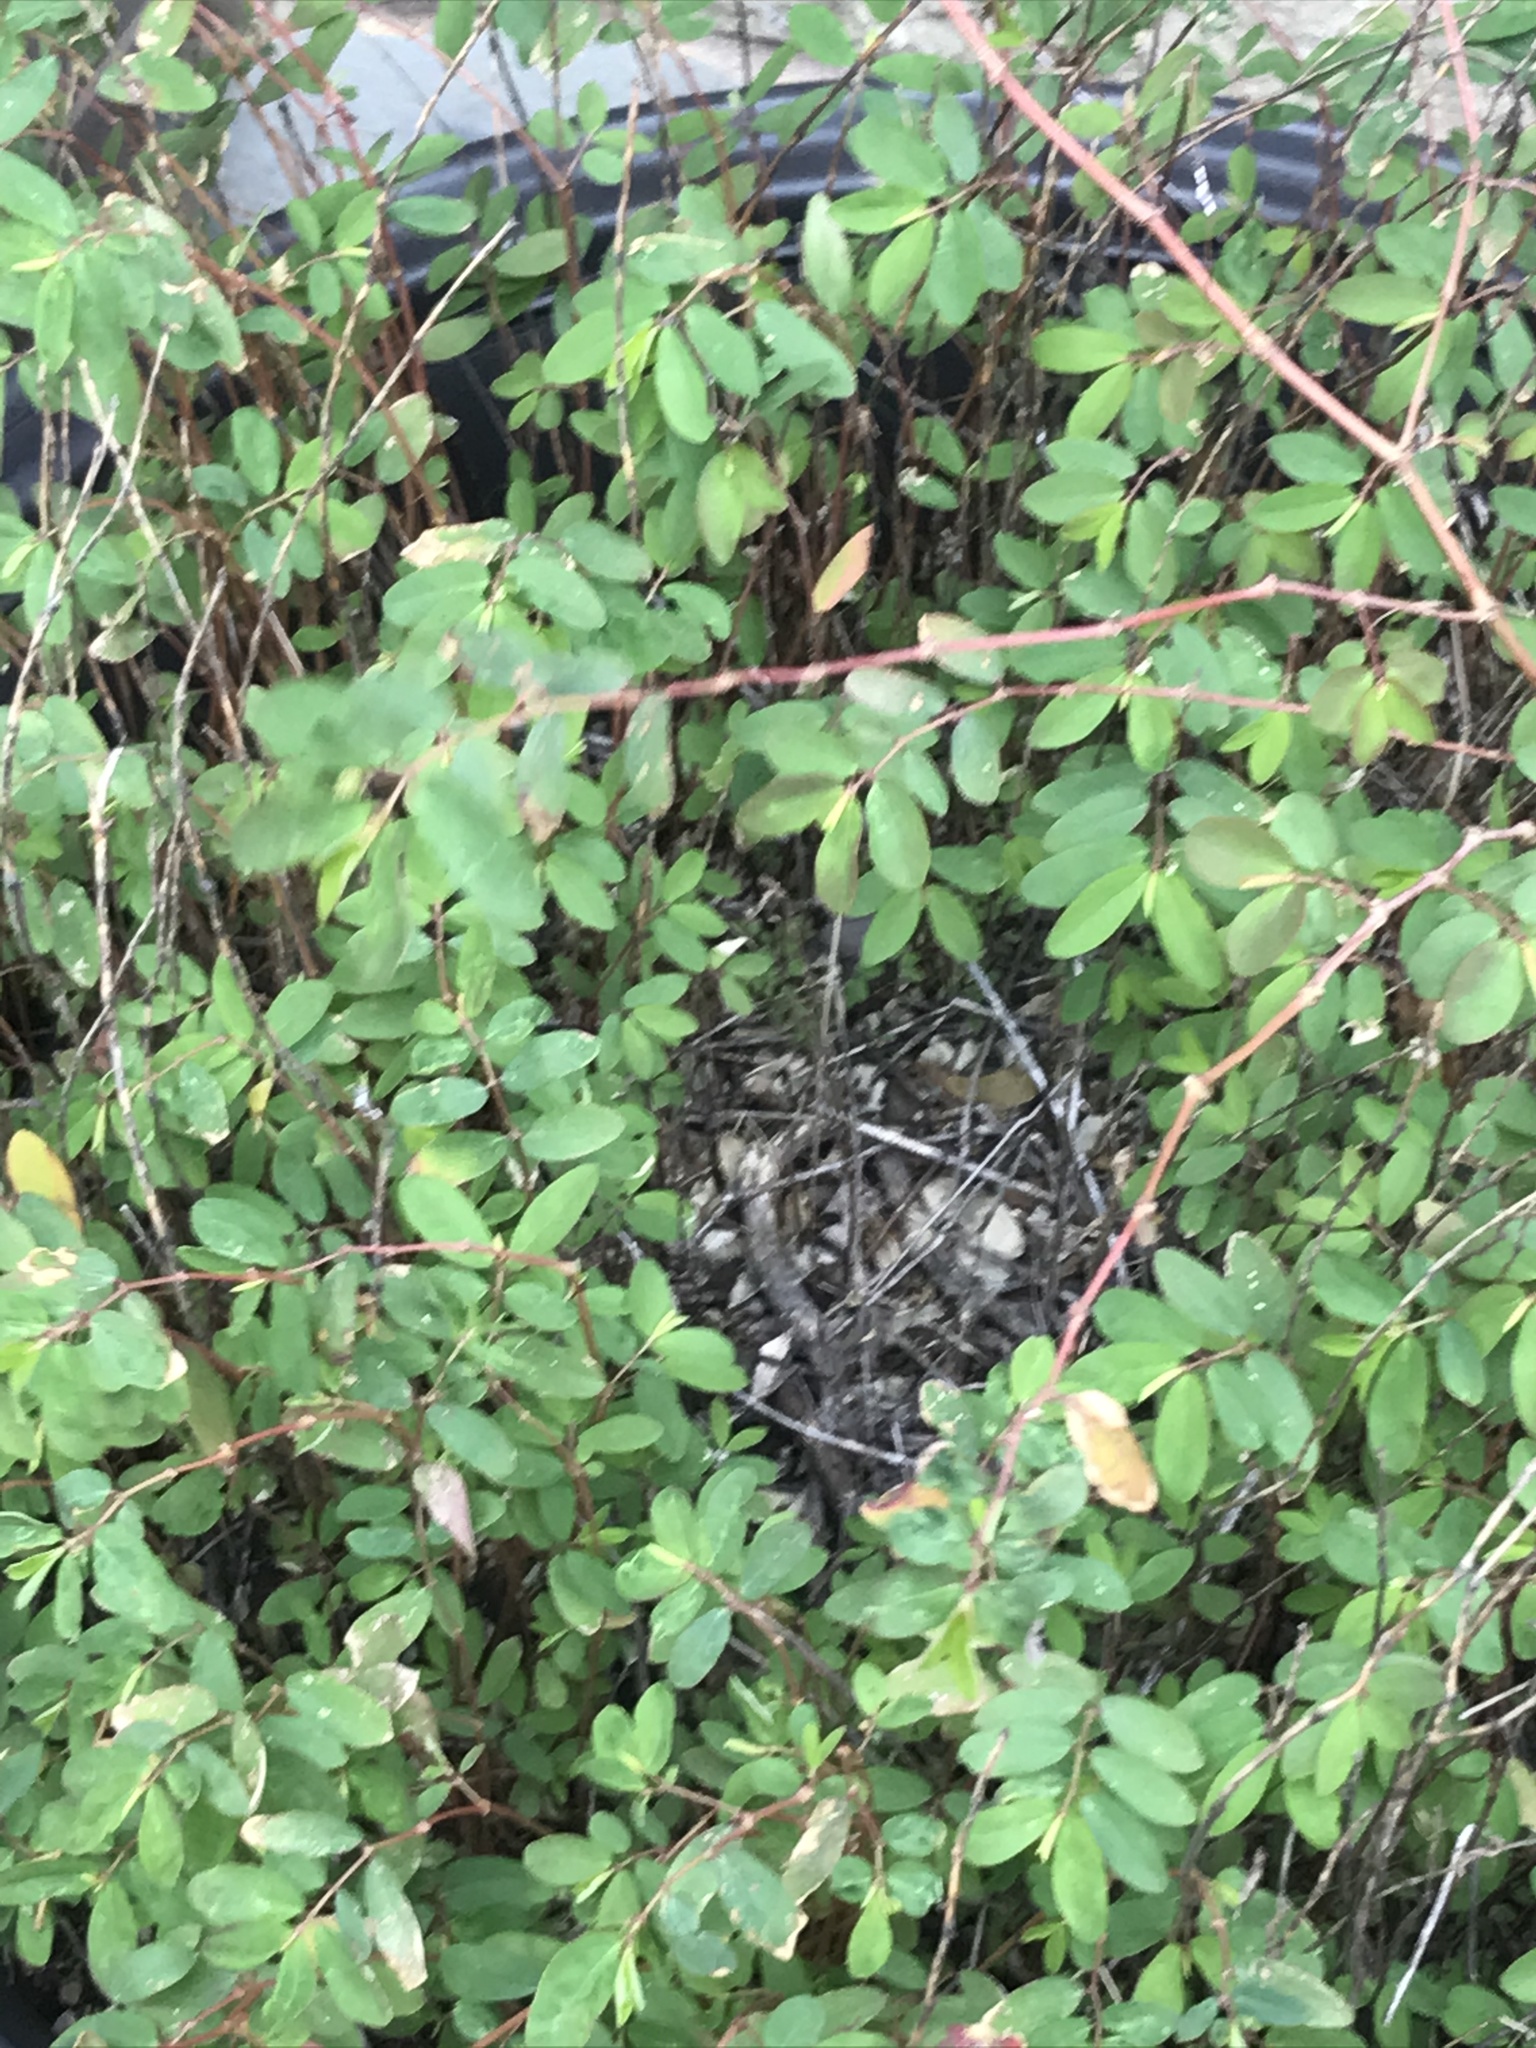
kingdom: Plantae
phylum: Tracheophyta
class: Magnoliopsida
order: Malpighiales
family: Euphorbiaceae
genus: Euphorbia
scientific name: Euphorbia hypericifolia
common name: Graceful sandmat
